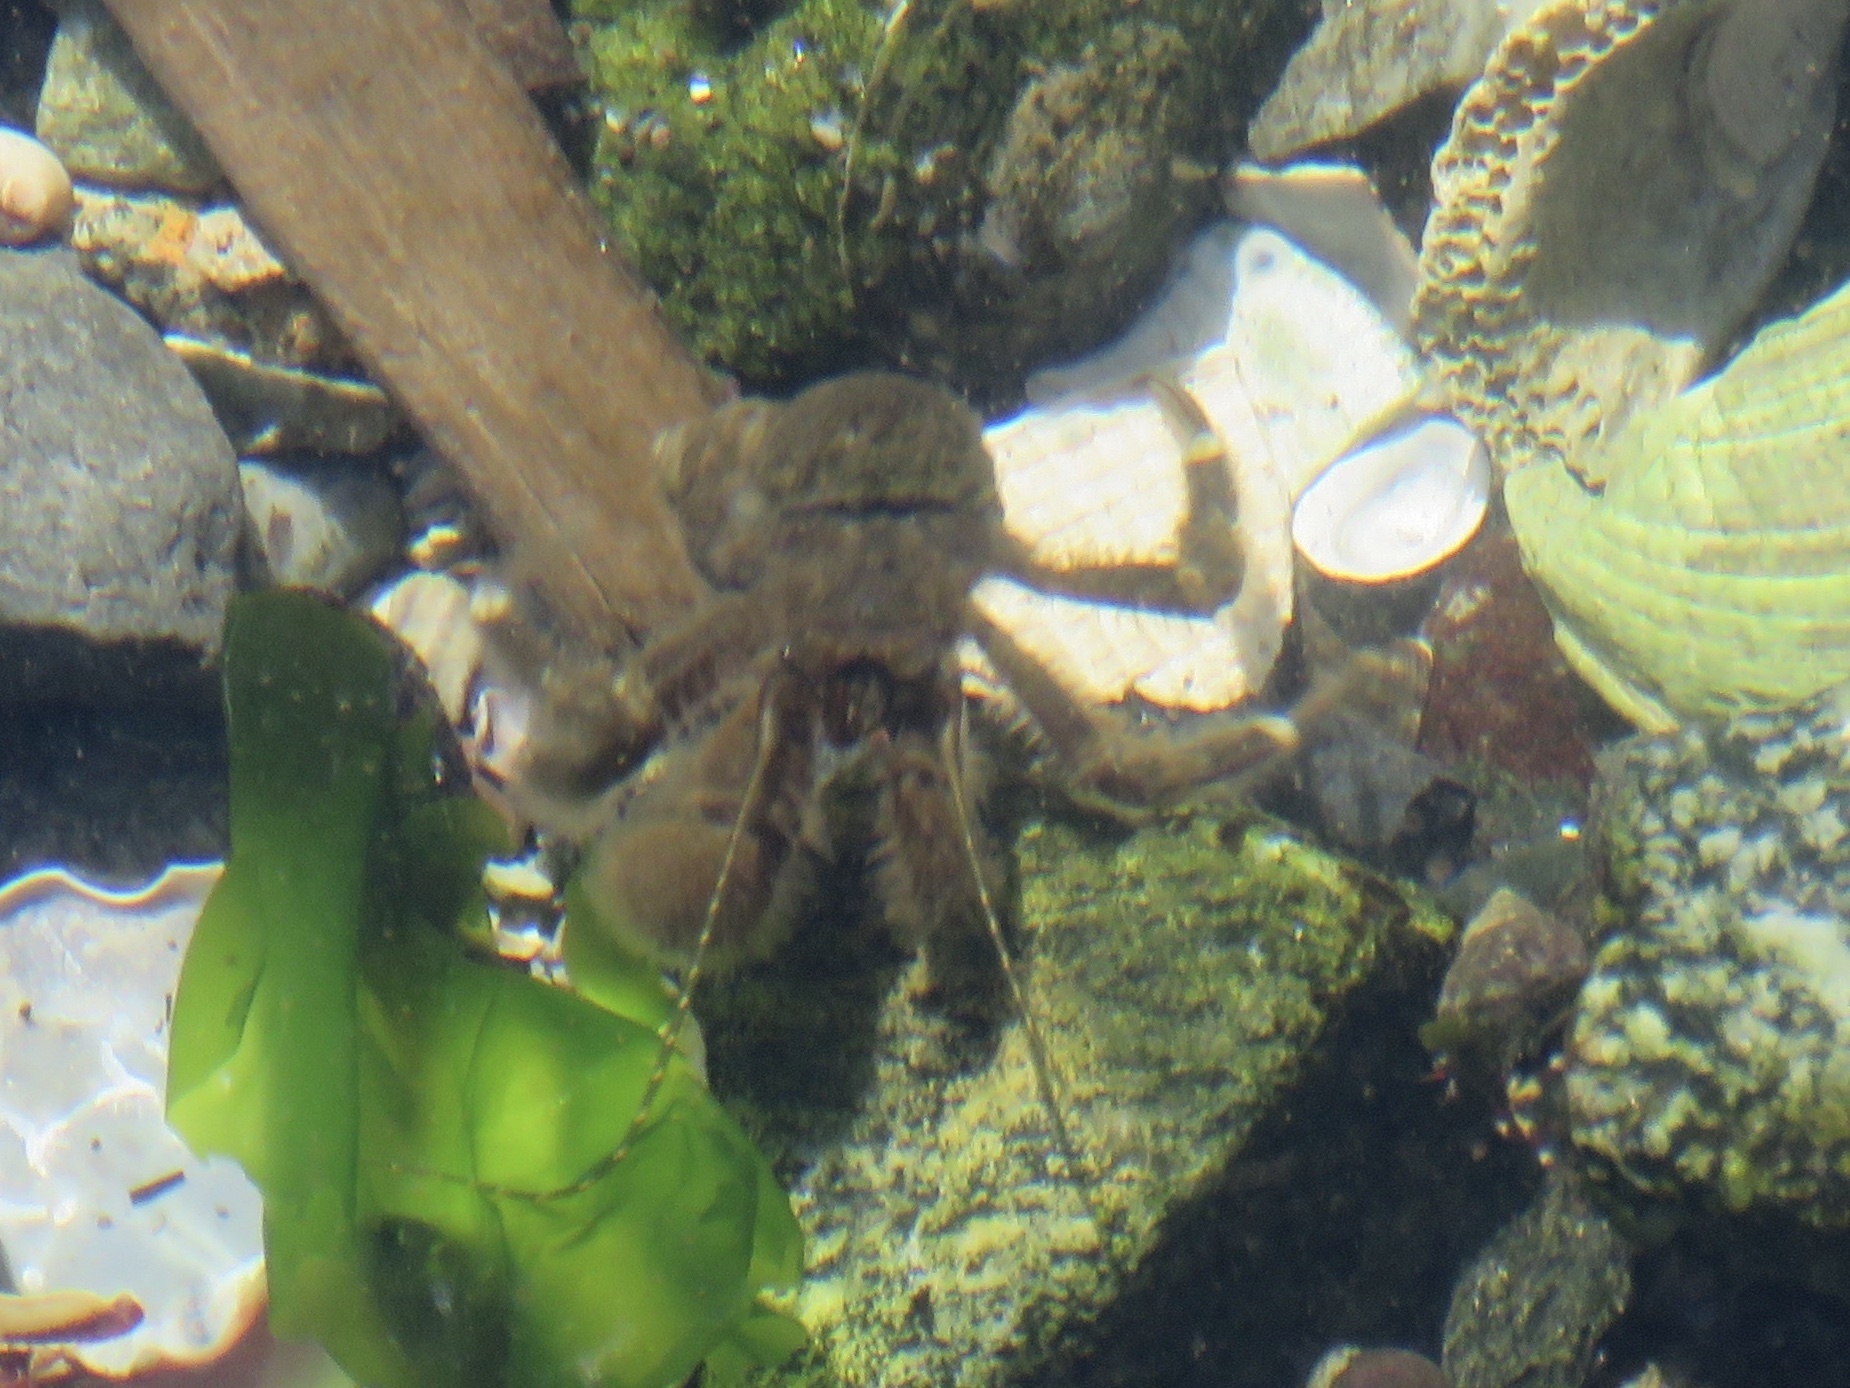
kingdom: Animalia
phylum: Arthropoda
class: Malacostraca
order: Decapoda
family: Paguridae
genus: Pagurus
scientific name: Pagurus hirsutiusculus
